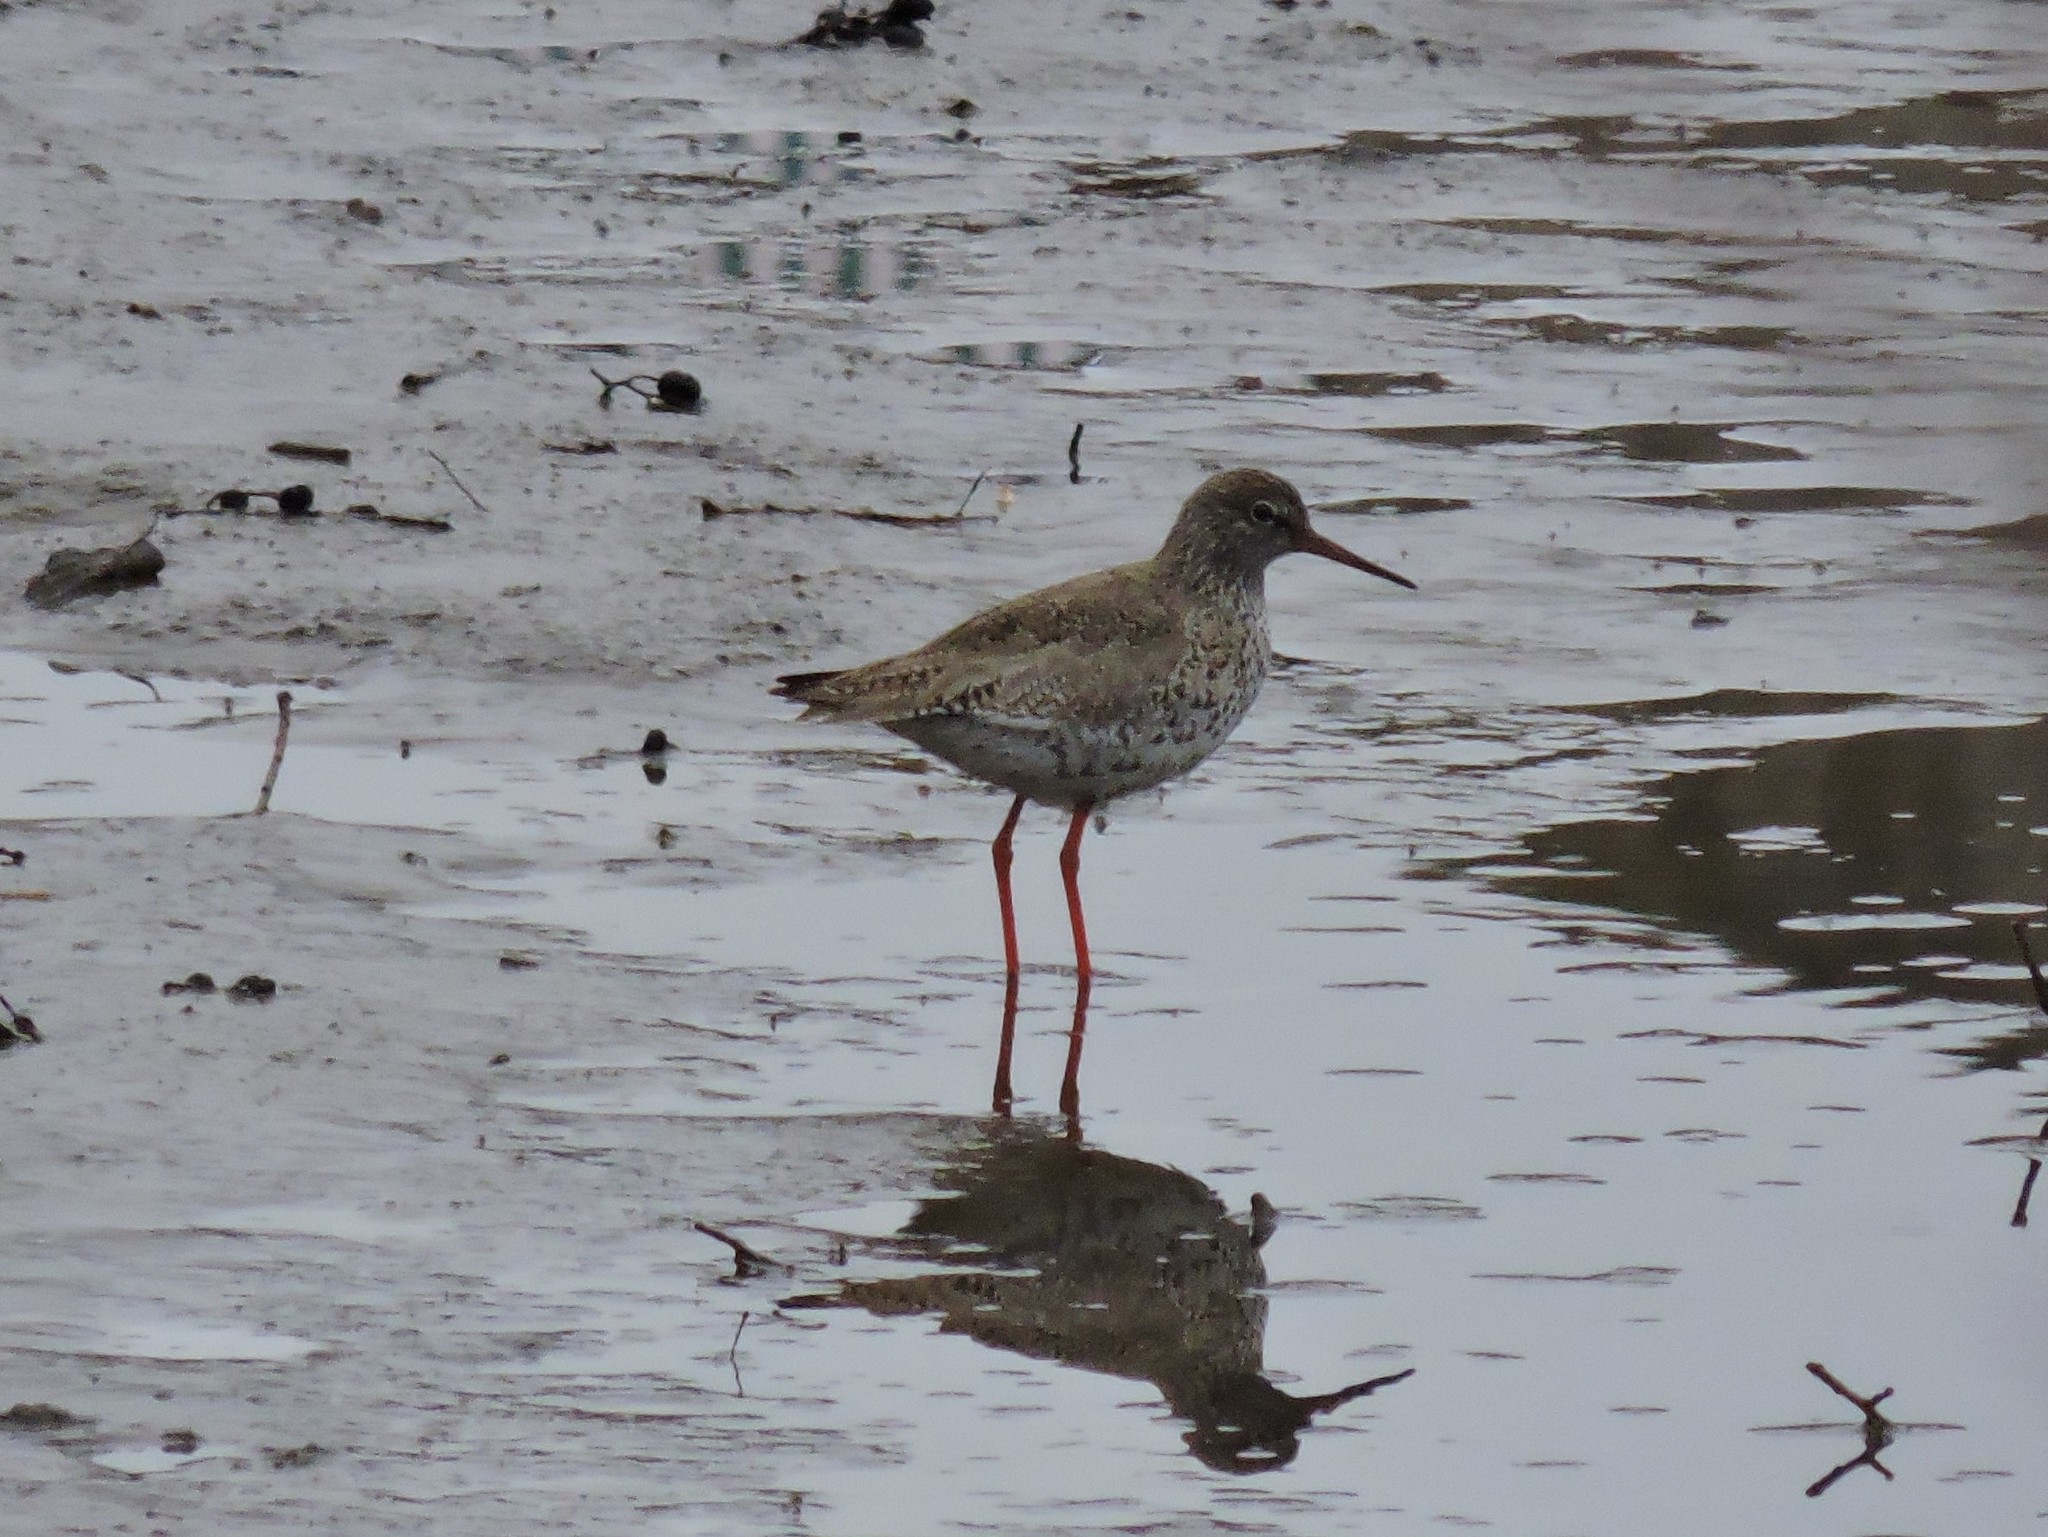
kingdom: Animalia
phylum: Chordata
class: Aves
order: Charadriiformes
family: Scolopacidae
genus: Tringa
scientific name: Tringa totanus
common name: Common redshank
